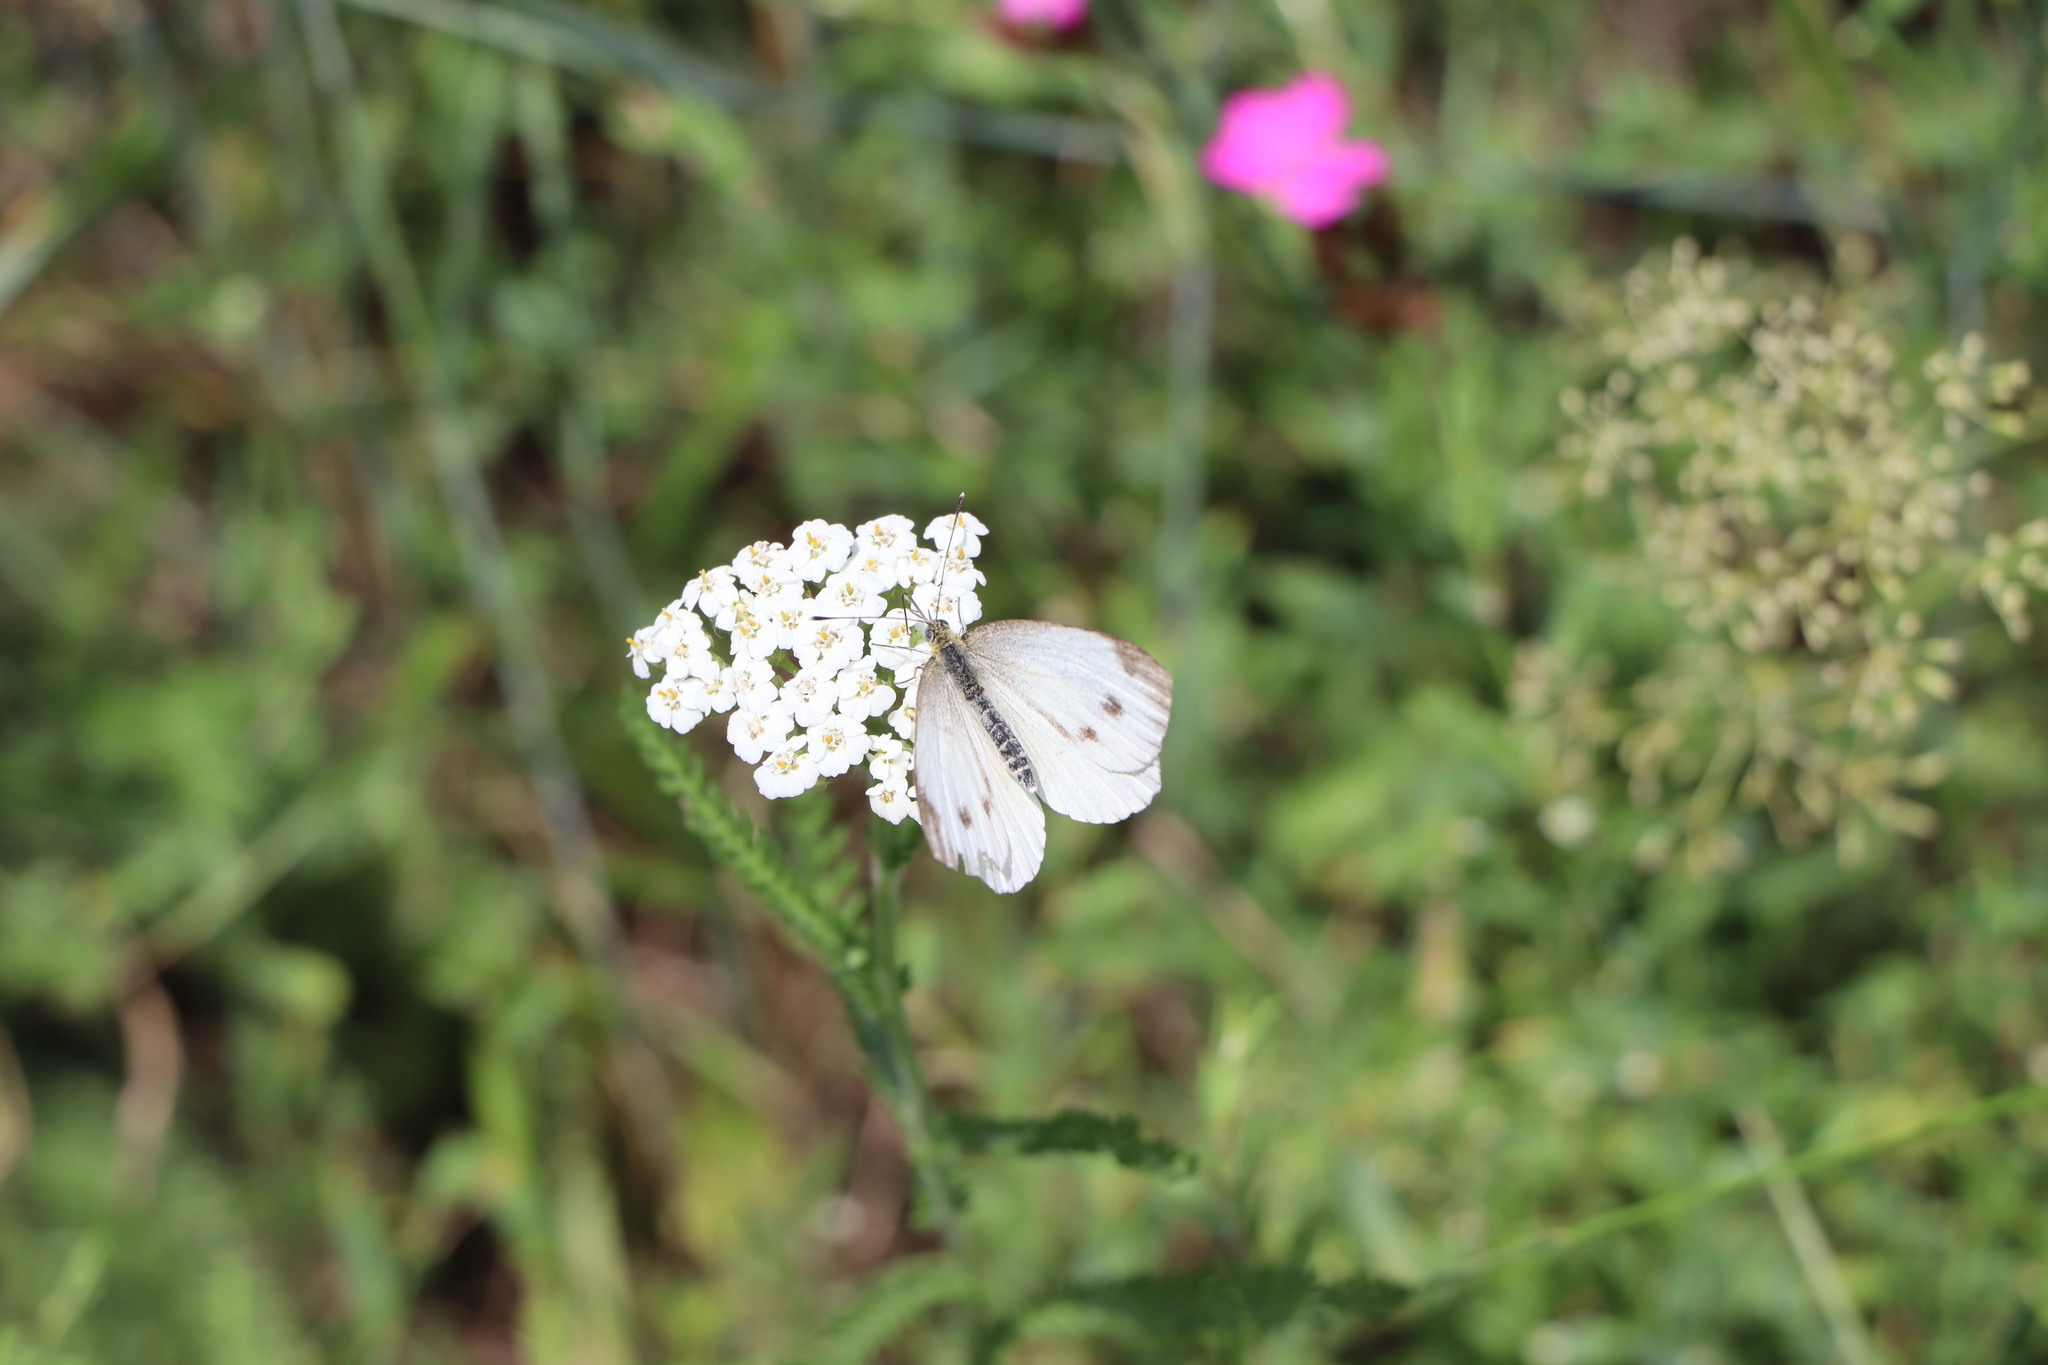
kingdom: Animalia
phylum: Arthropoda
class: Insecta
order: Lepidoptera
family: Pieridae
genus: Pieris
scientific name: Pieris napi
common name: Green-veined white
